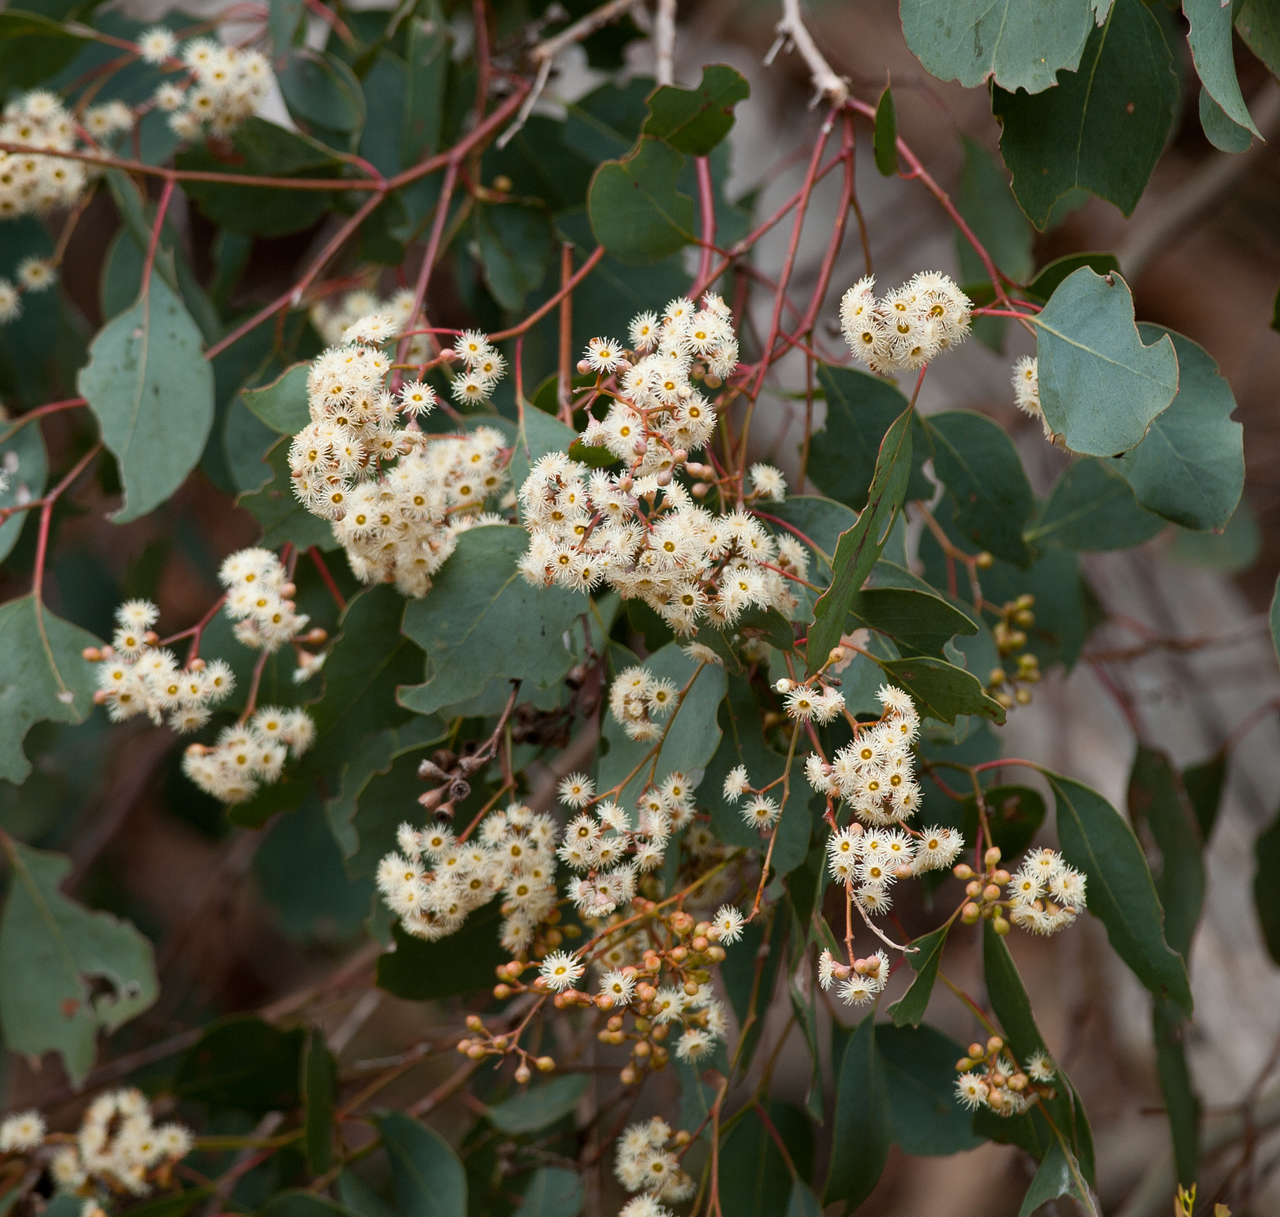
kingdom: Plantae
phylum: Tracheophyta
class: Magnoliopsida
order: Myrtales
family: Myrtaceae
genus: Eucalyptus
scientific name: Eucalyptus polyanthemos
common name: Red-box
